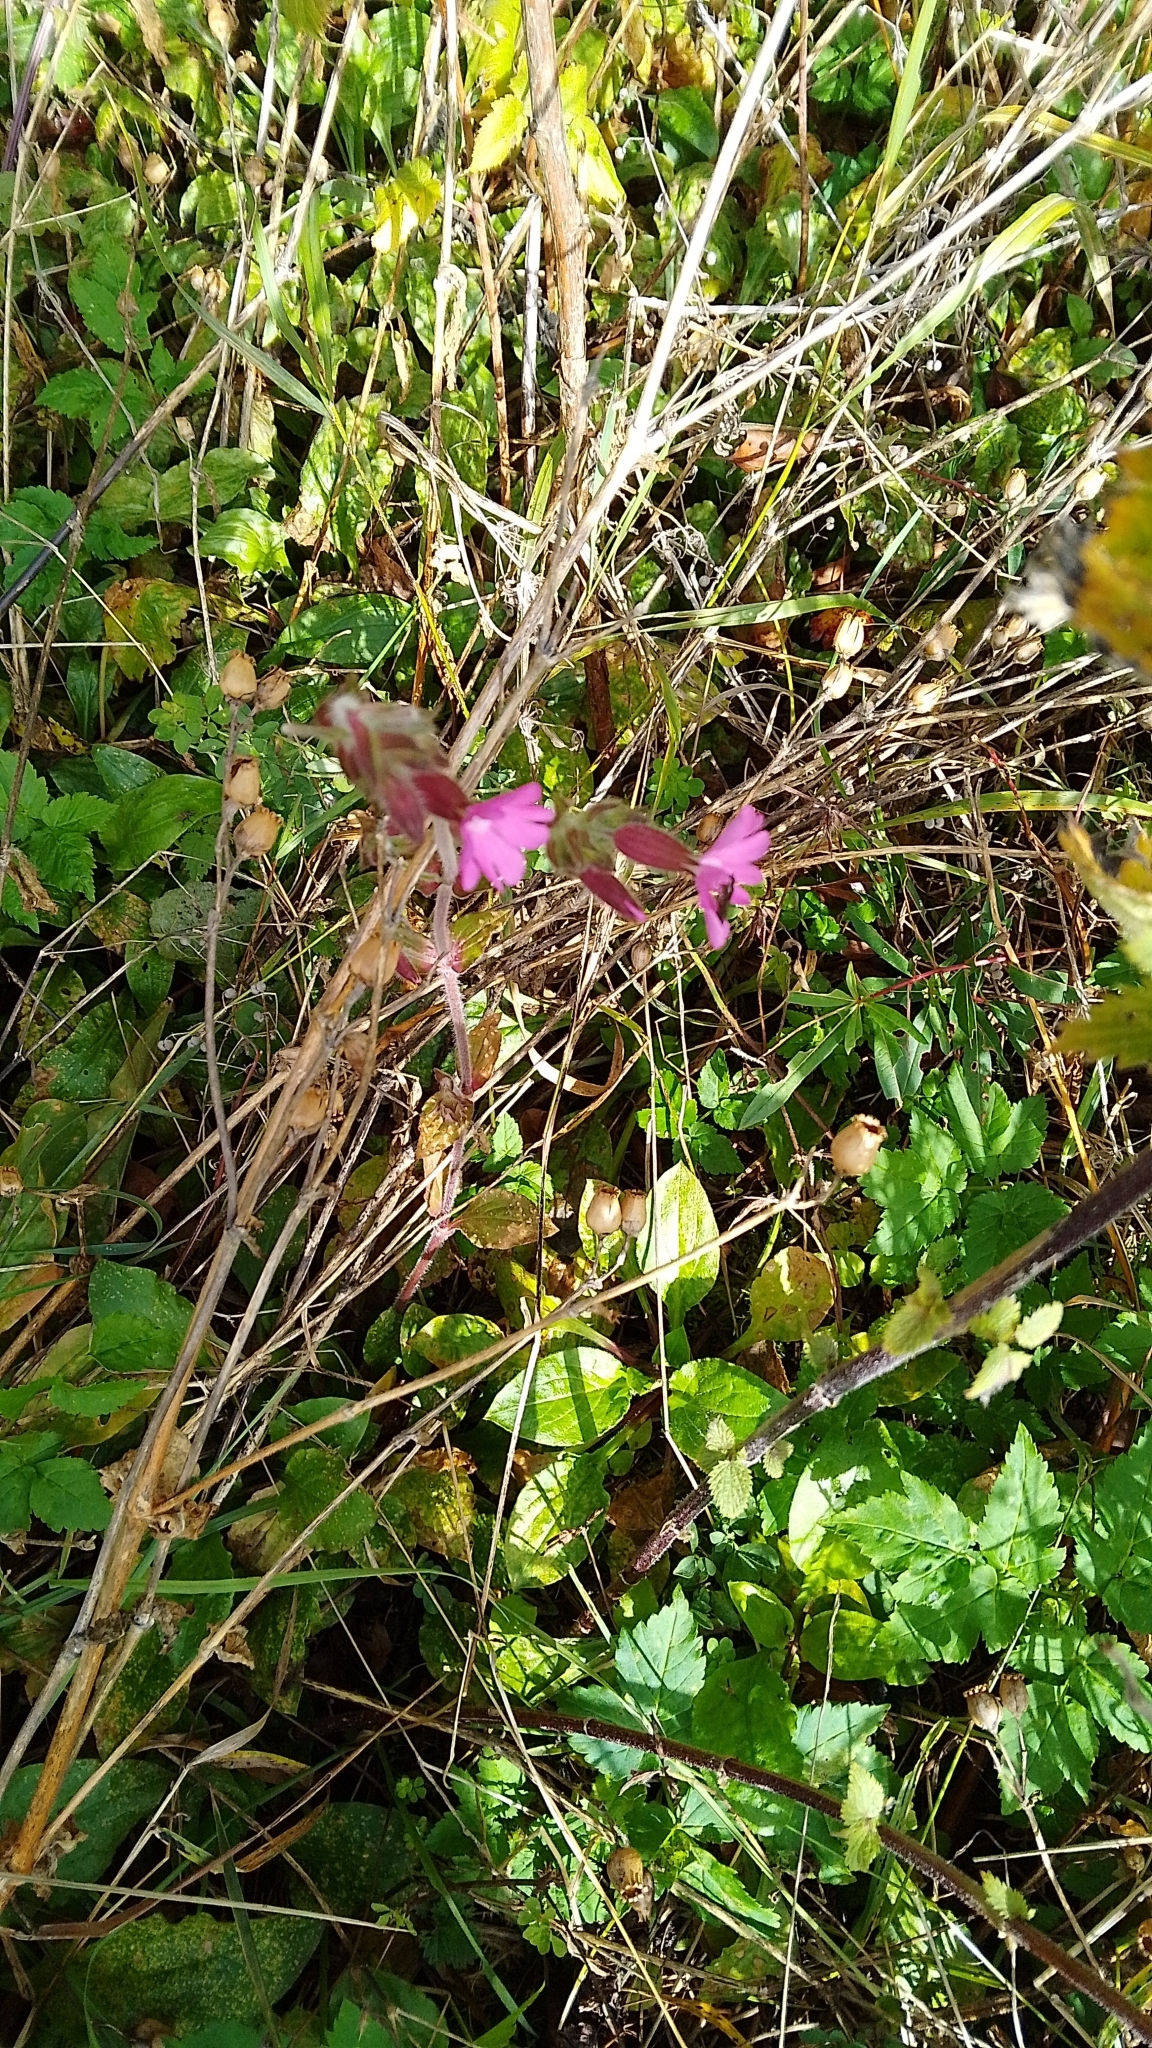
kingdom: Plantae
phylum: Tracheophyta
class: Magnoliopsida
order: Caryophyllales
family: Caryophyllaceae
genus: Silene
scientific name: Silene dioica
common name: Red campion
